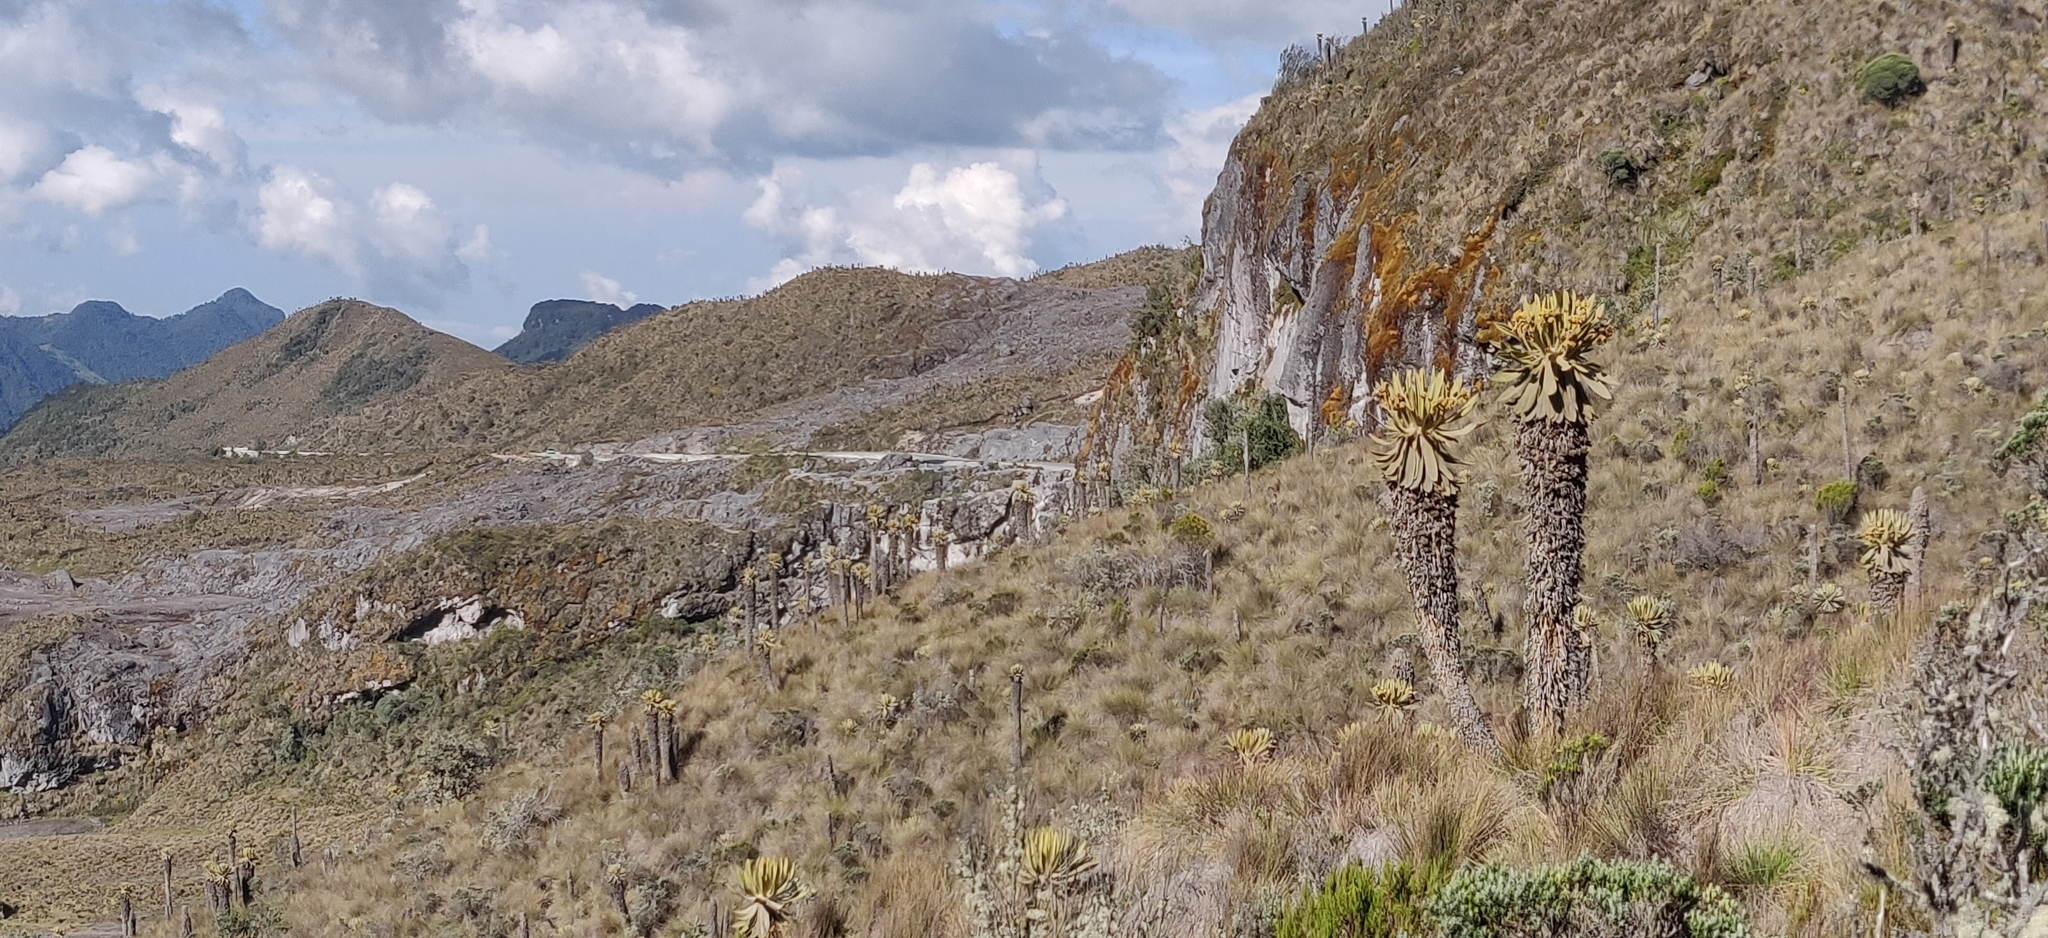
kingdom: Plantae
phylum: Tracheophyta
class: Magnoliopsida
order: Asterales
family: Asteraceae
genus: Espeletia
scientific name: Espeletia hartwegiana
